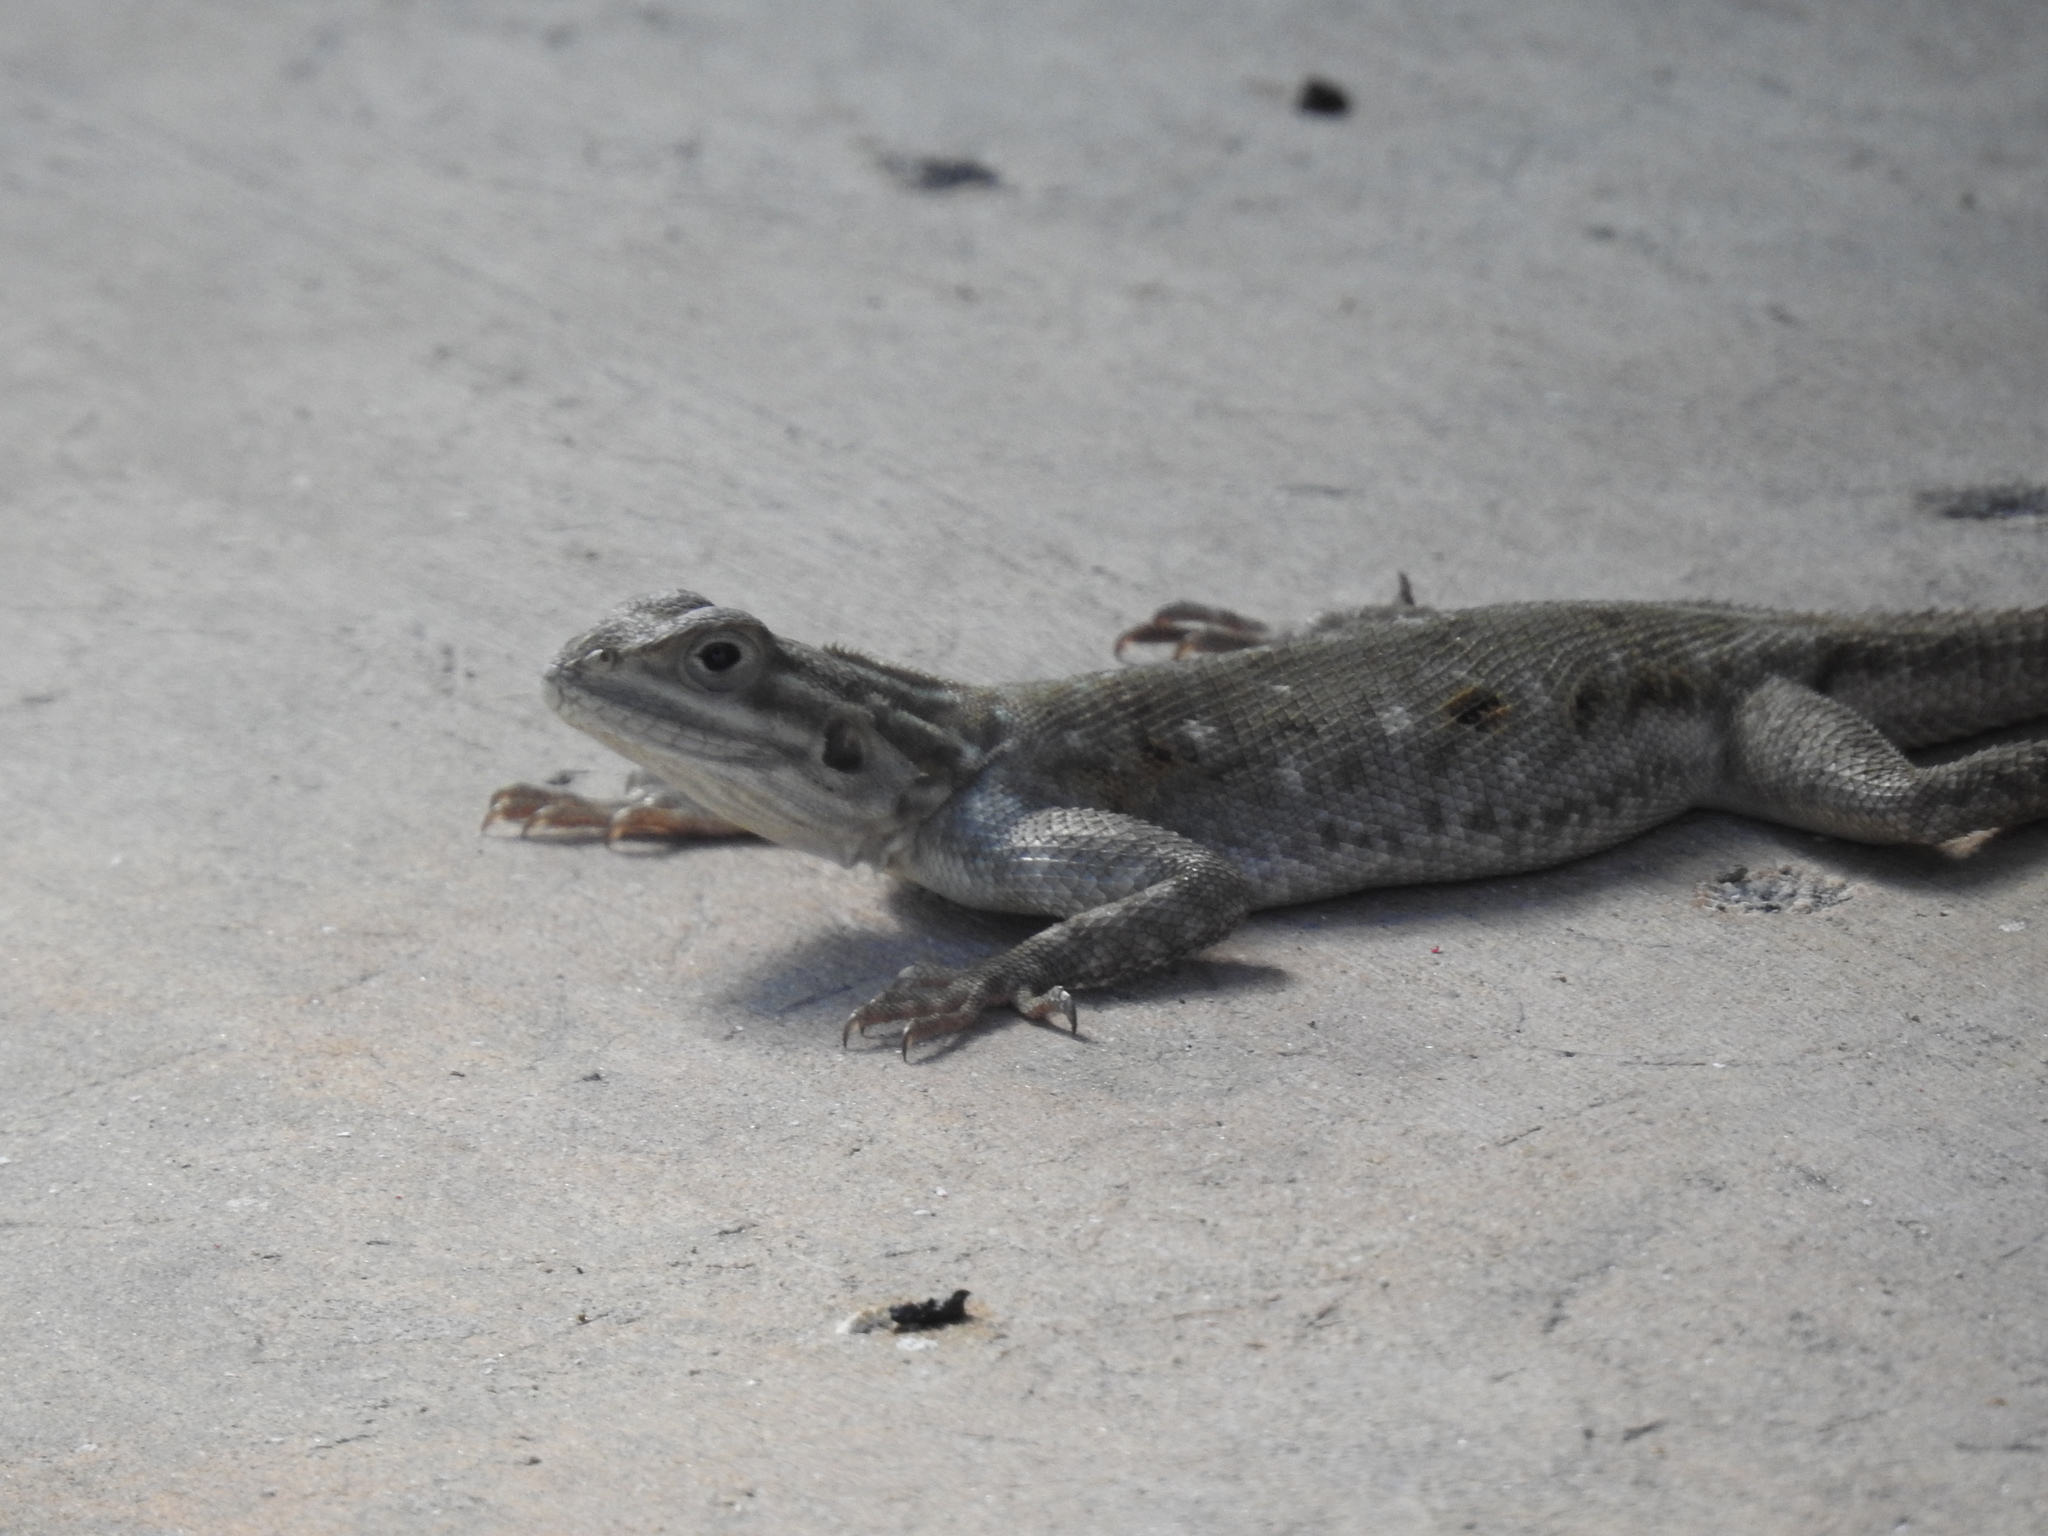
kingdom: Animalia
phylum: Chordata
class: Squamata
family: Agamidae
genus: Agama
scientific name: Agama picticauda
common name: Red-headed agama
